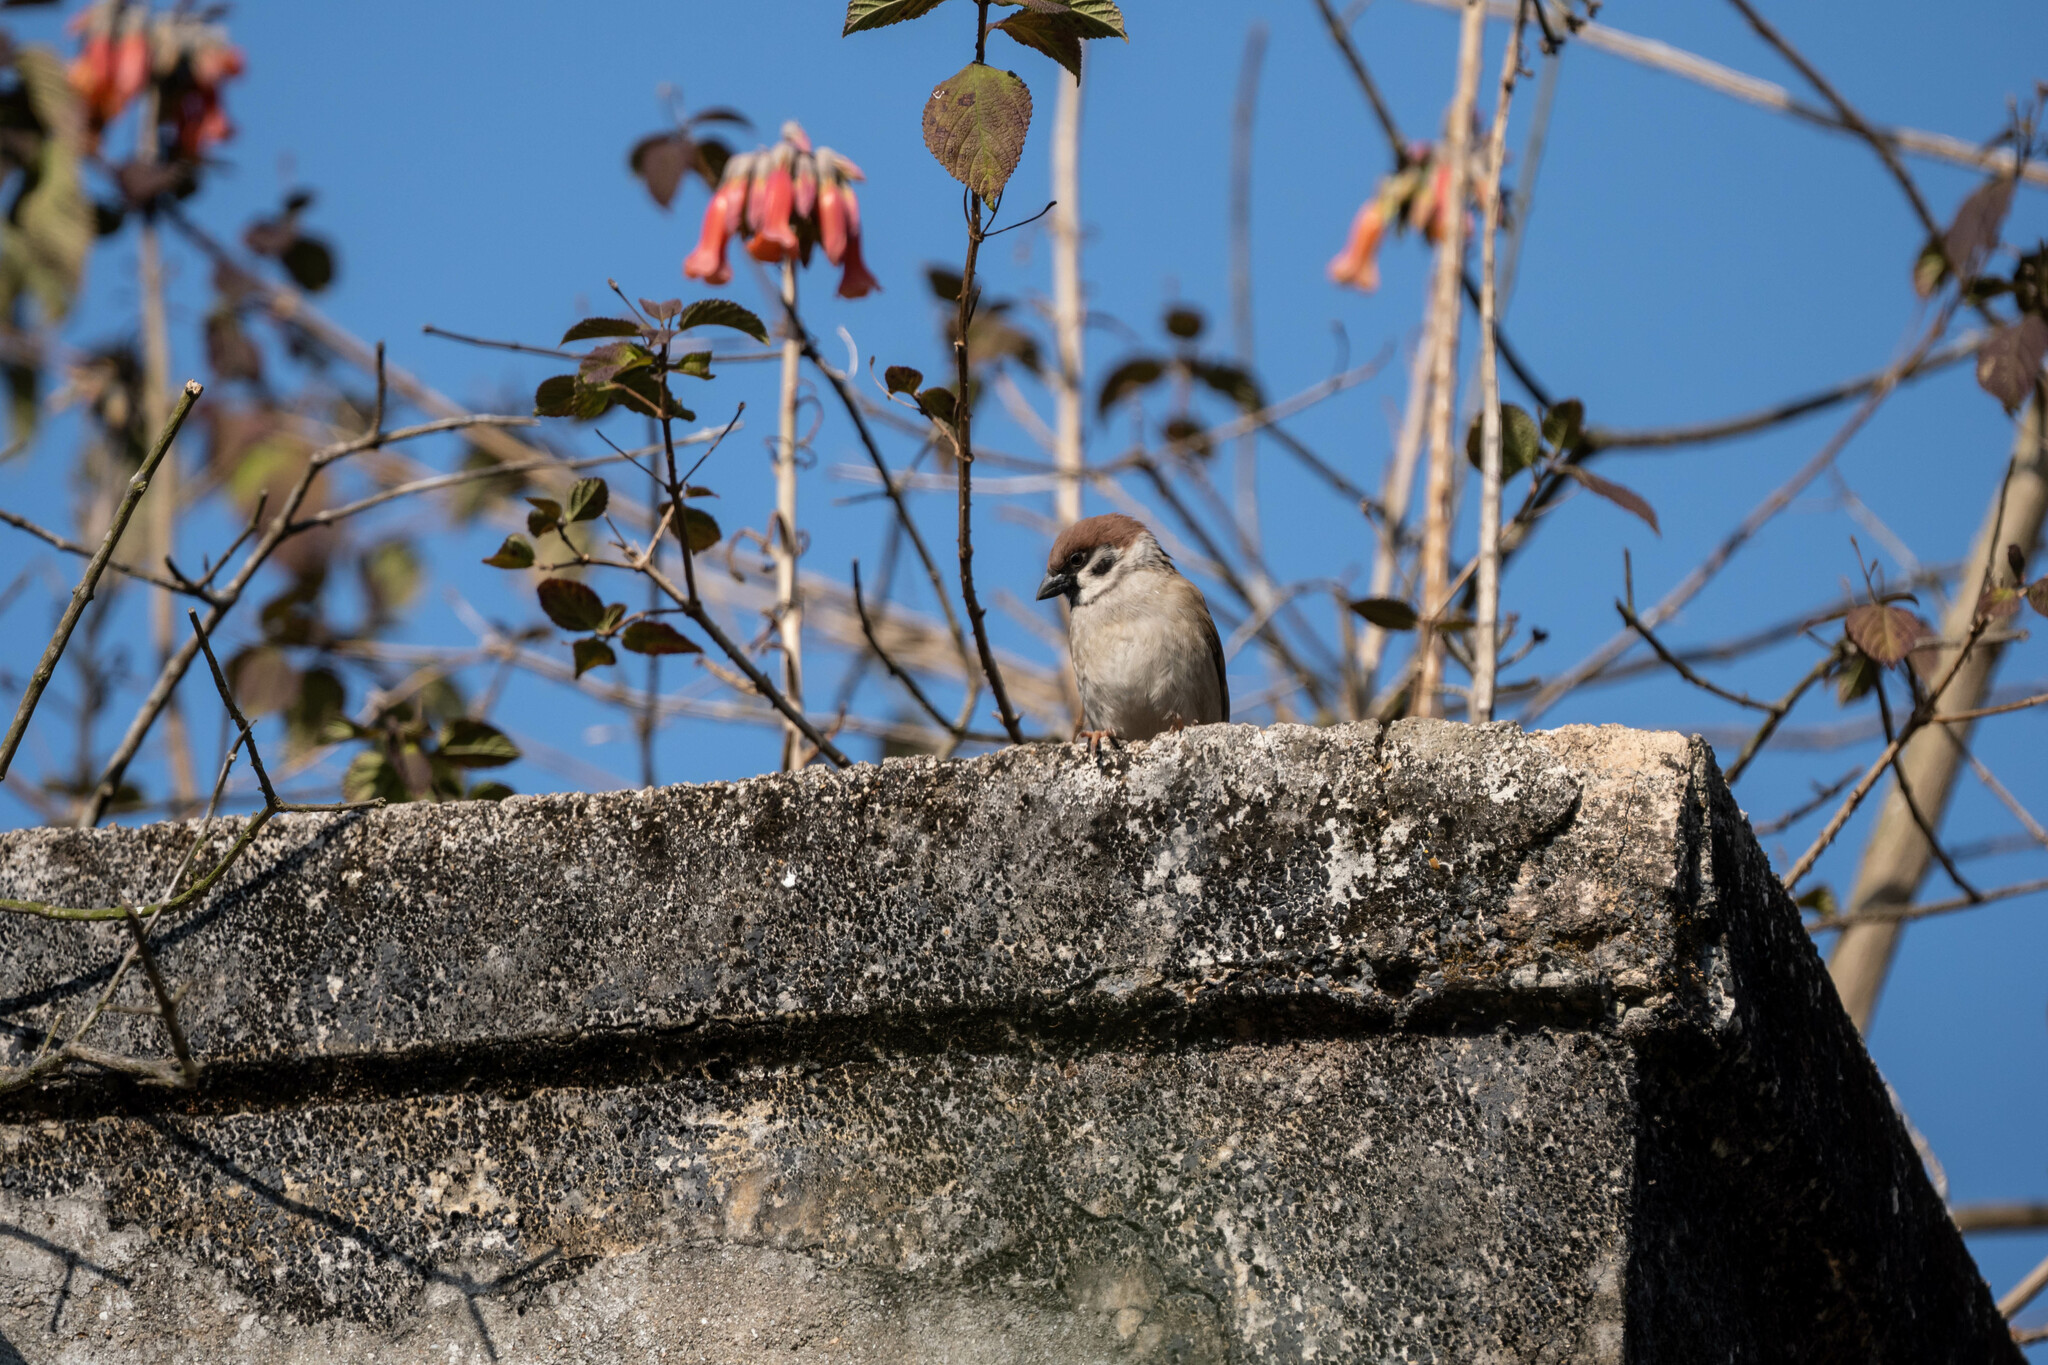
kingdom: Animalia
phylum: Chordata
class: Aves
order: Passeriformes
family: Passeridae
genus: Passer
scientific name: Passer montanus
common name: Eurasian tree sparrow
